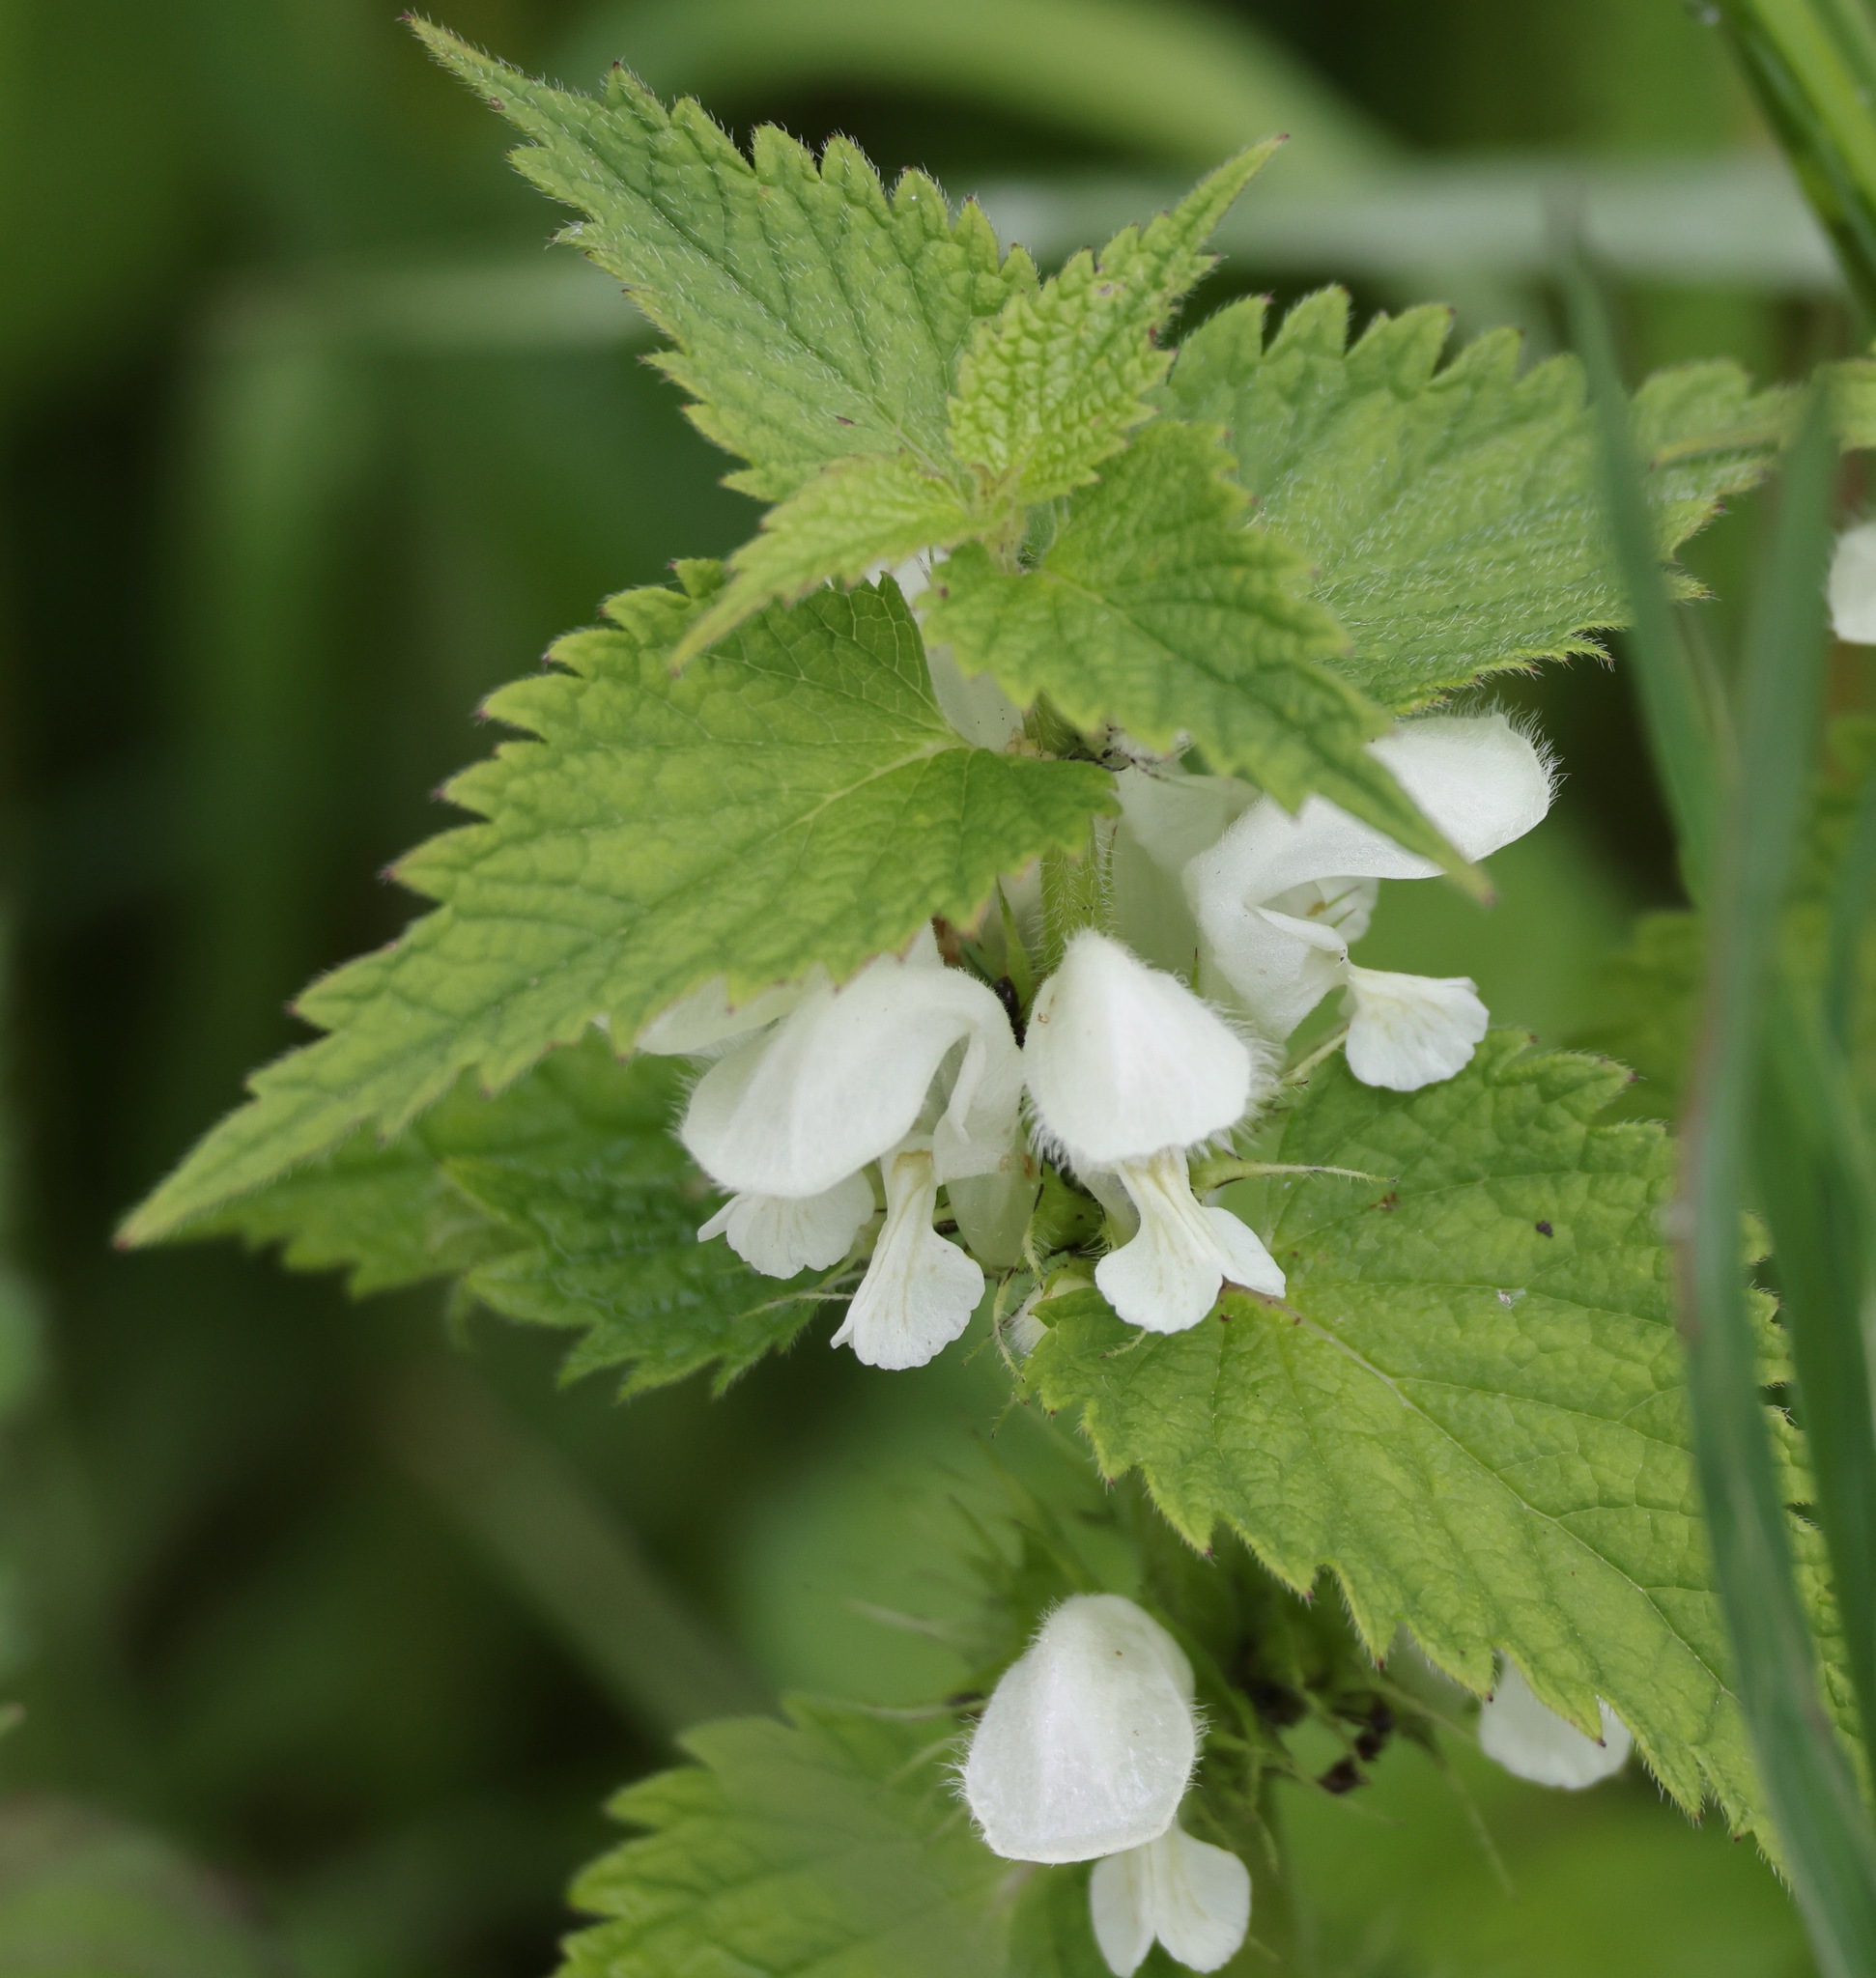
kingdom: Plantae
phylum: Tracheophyta
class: Magnoliopsida
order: Lamiales
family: Lamiaceae
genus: Lamium
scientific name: Lamium album
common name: White dead-nettle
